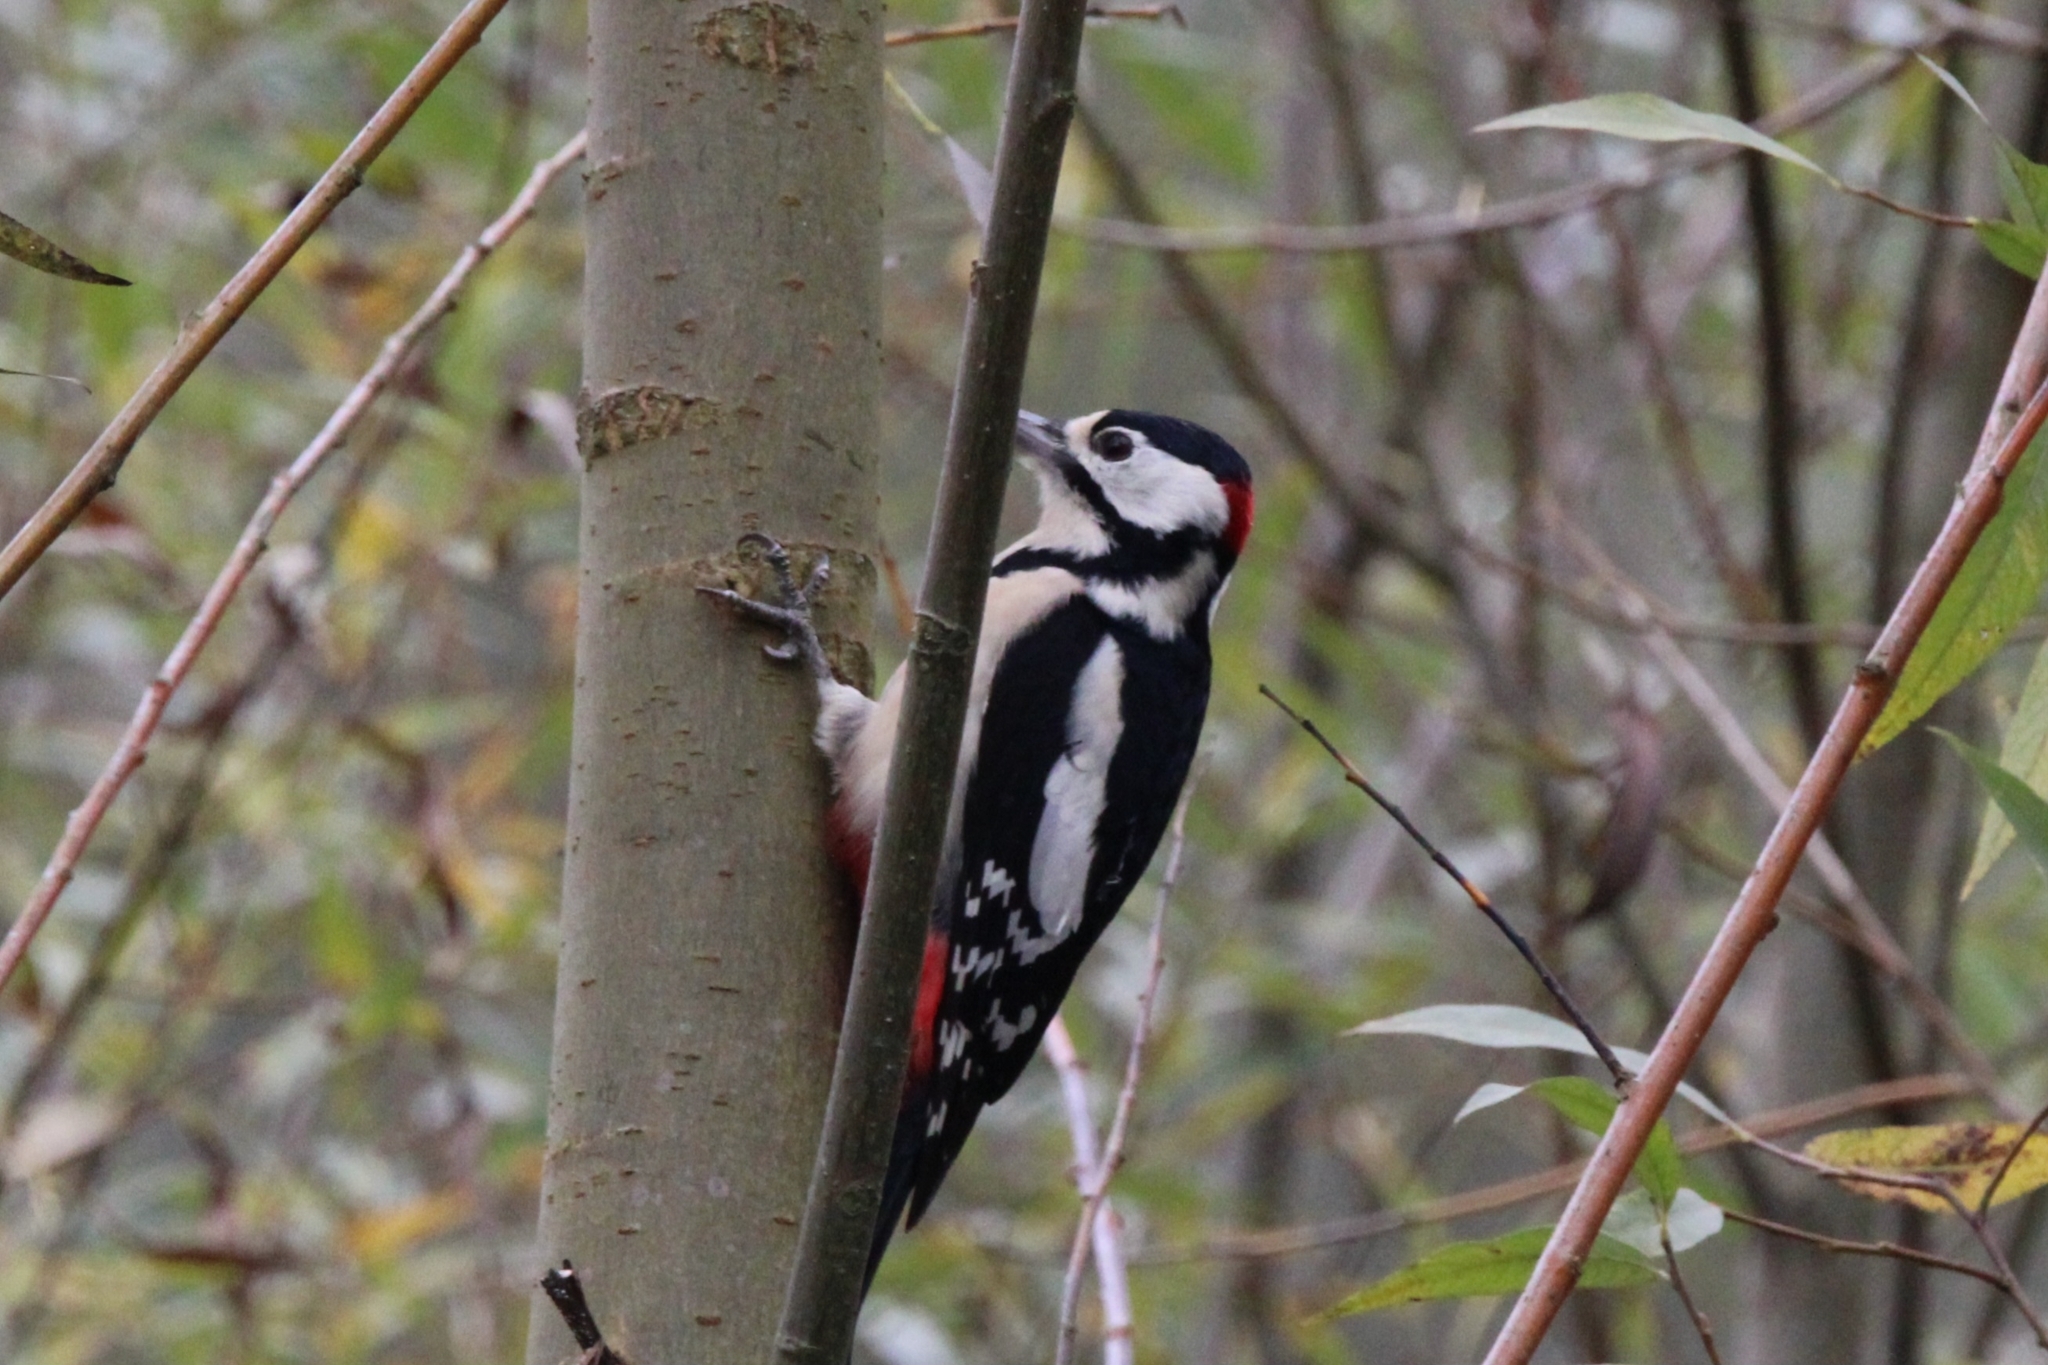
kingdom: Animalia
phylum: Chordata
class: Aves
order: Piciformes
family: Picidae
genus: Dendrocopos
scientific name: Dendrocopos major
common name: Great spotted woodpecker
